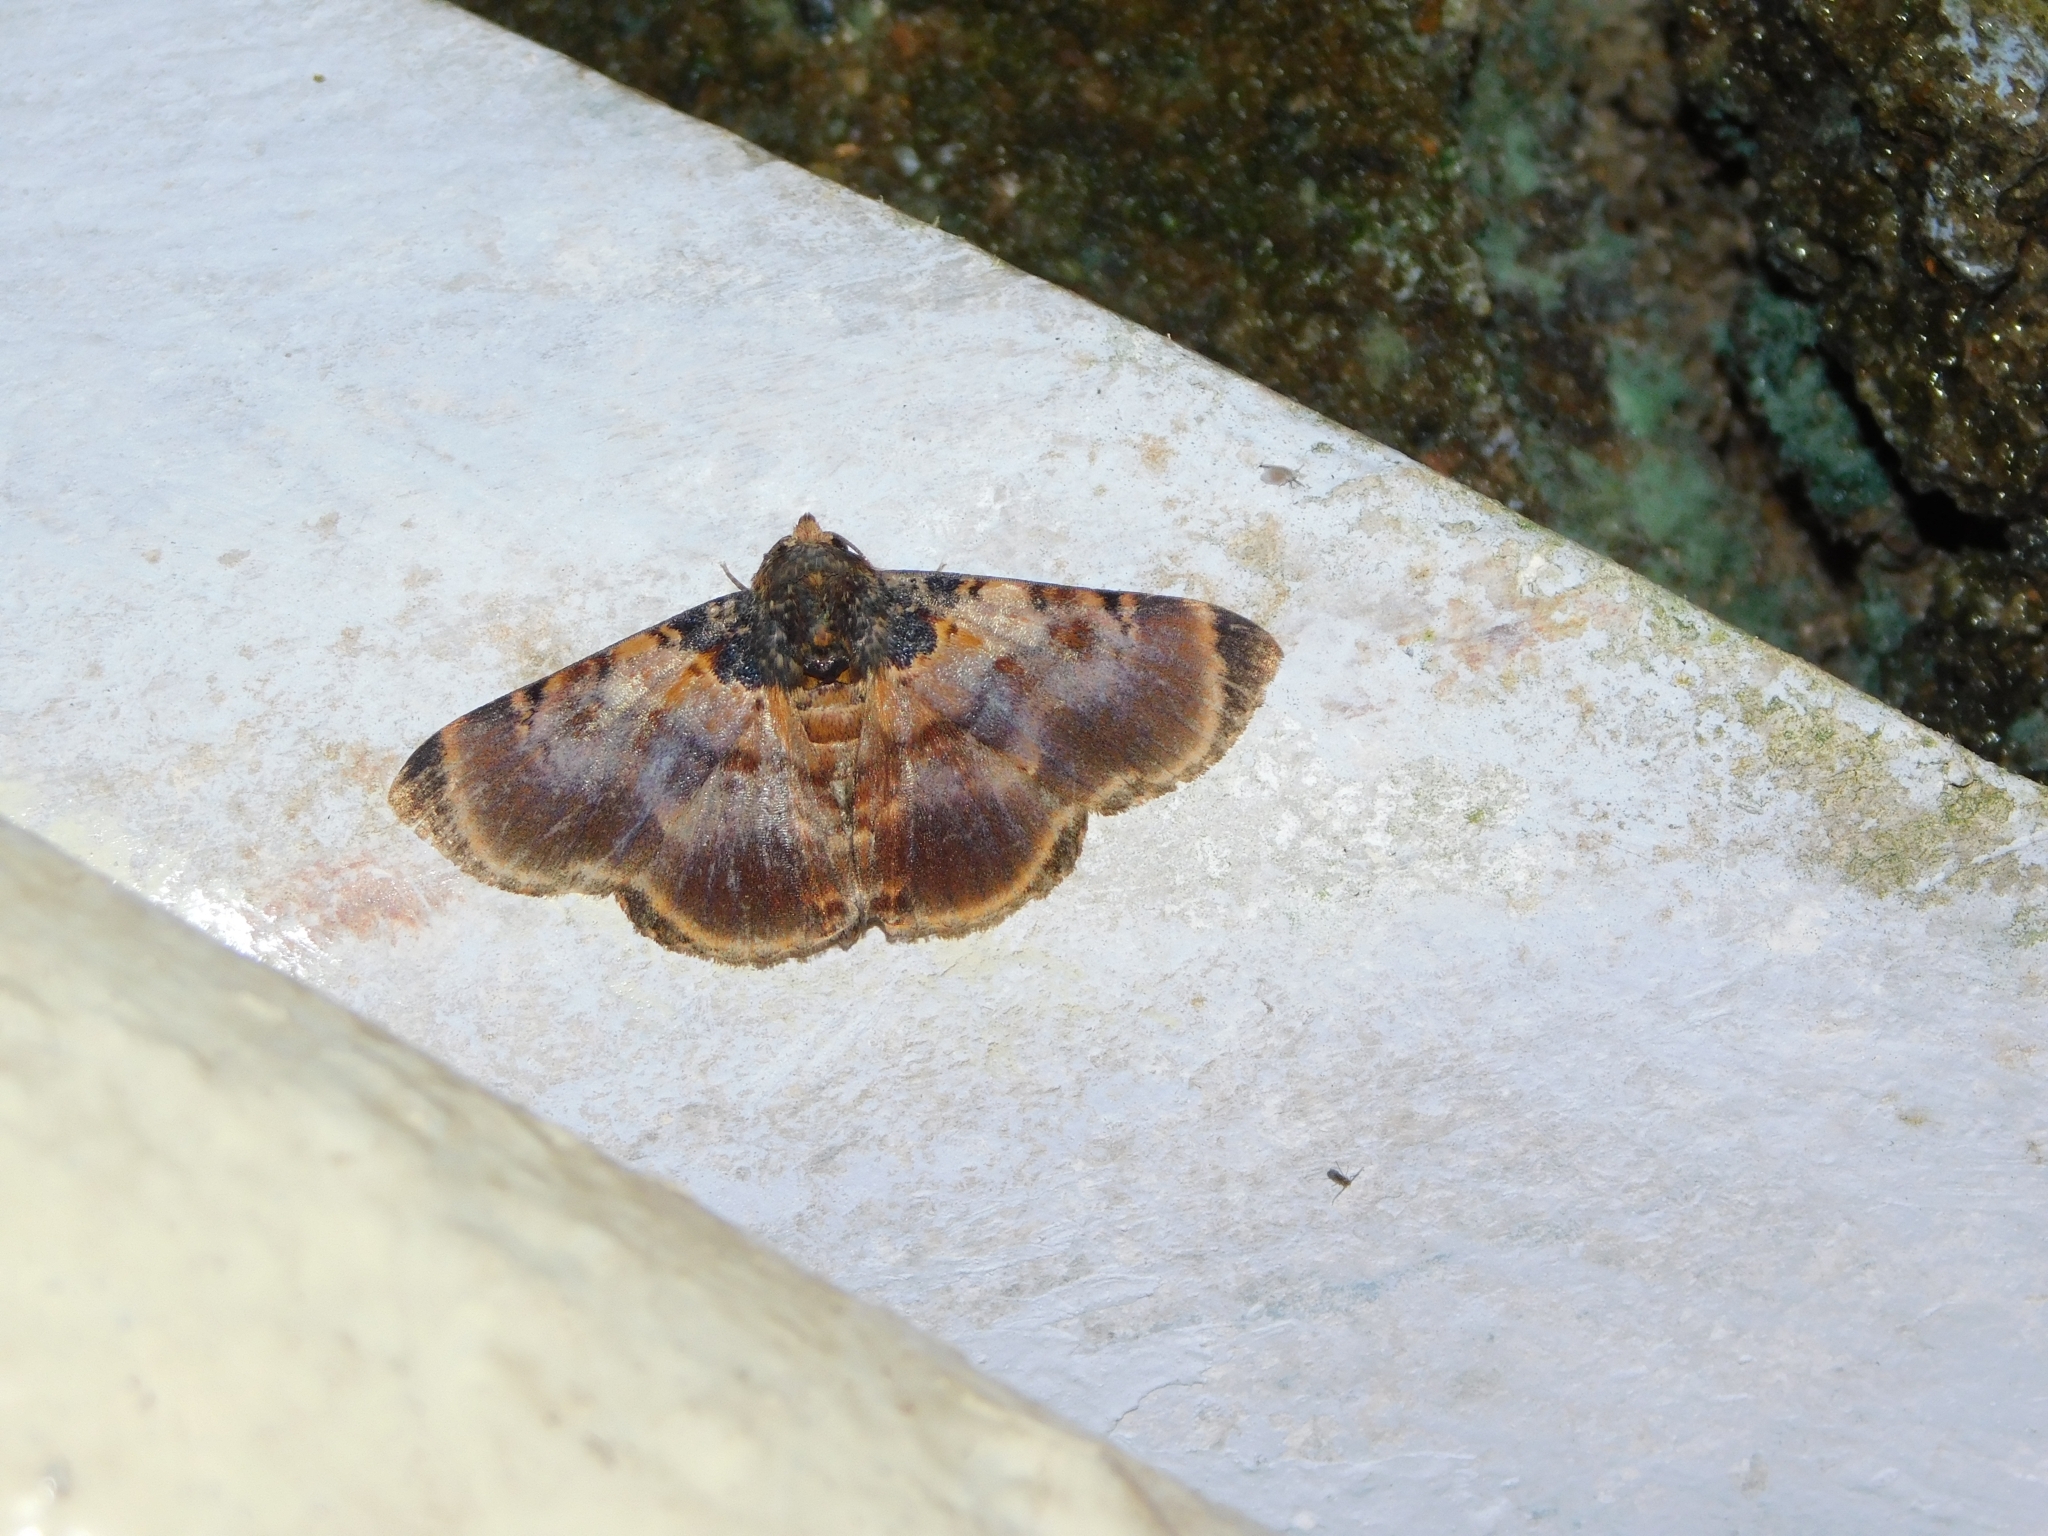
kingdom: Animalia
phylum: Arthropoda
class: Insecta
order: Lepidoptera
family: Erebidae
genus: Diomea
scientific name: Diomea lignicolora
